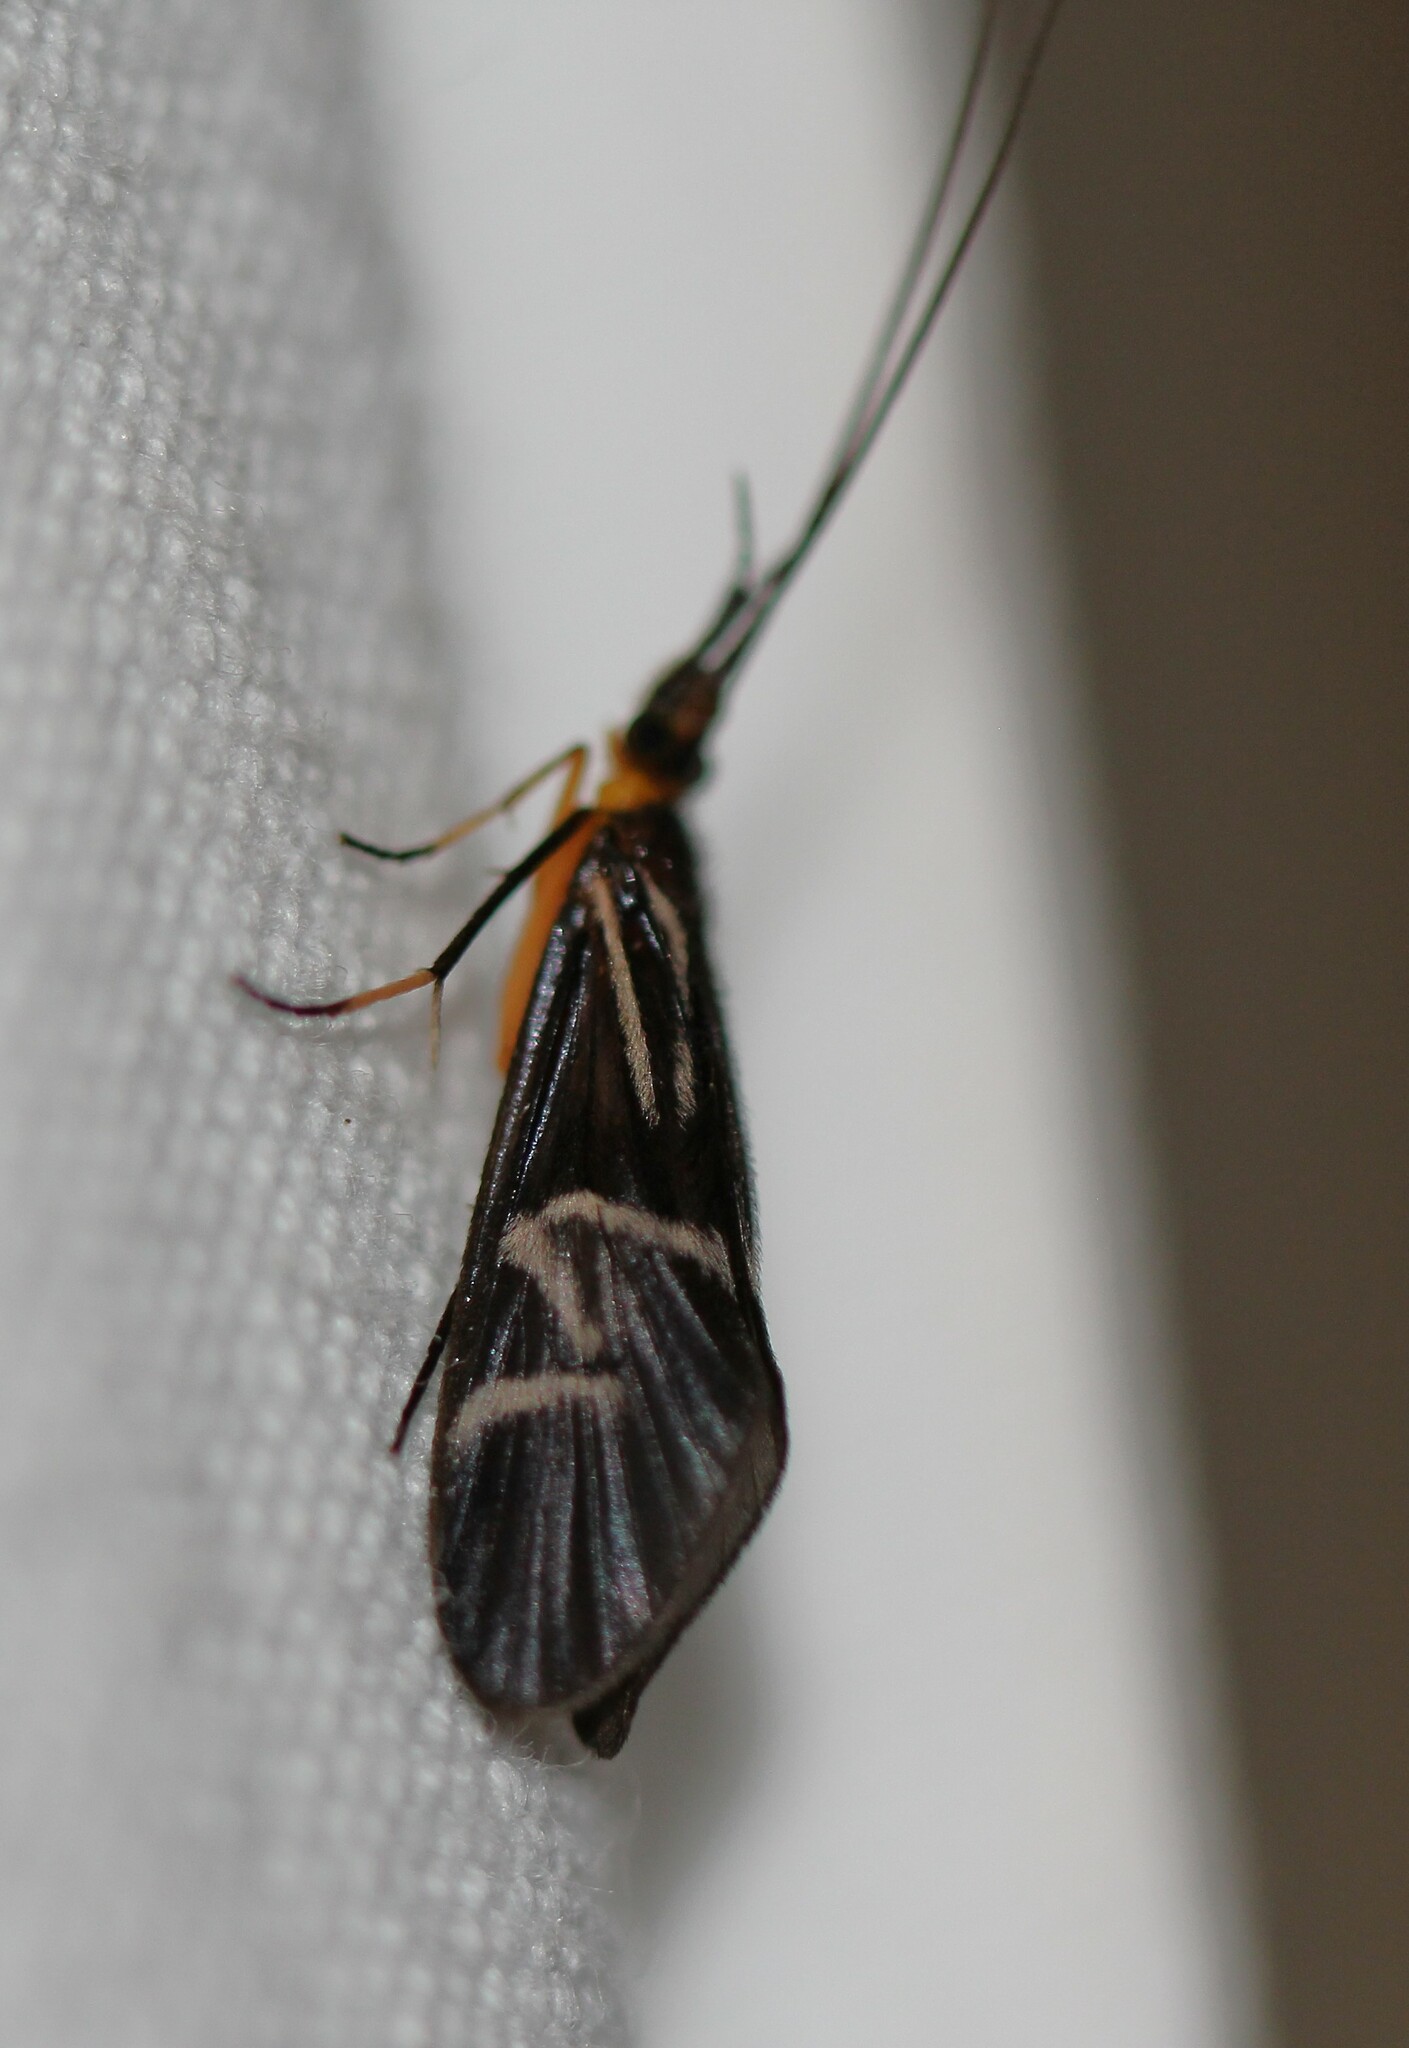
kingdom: Animalia
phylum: Arthropoda
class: Insecta
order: Trichoptera
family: Calamoceratidae
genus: Phylloicus
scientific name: Phylloicus elegans
